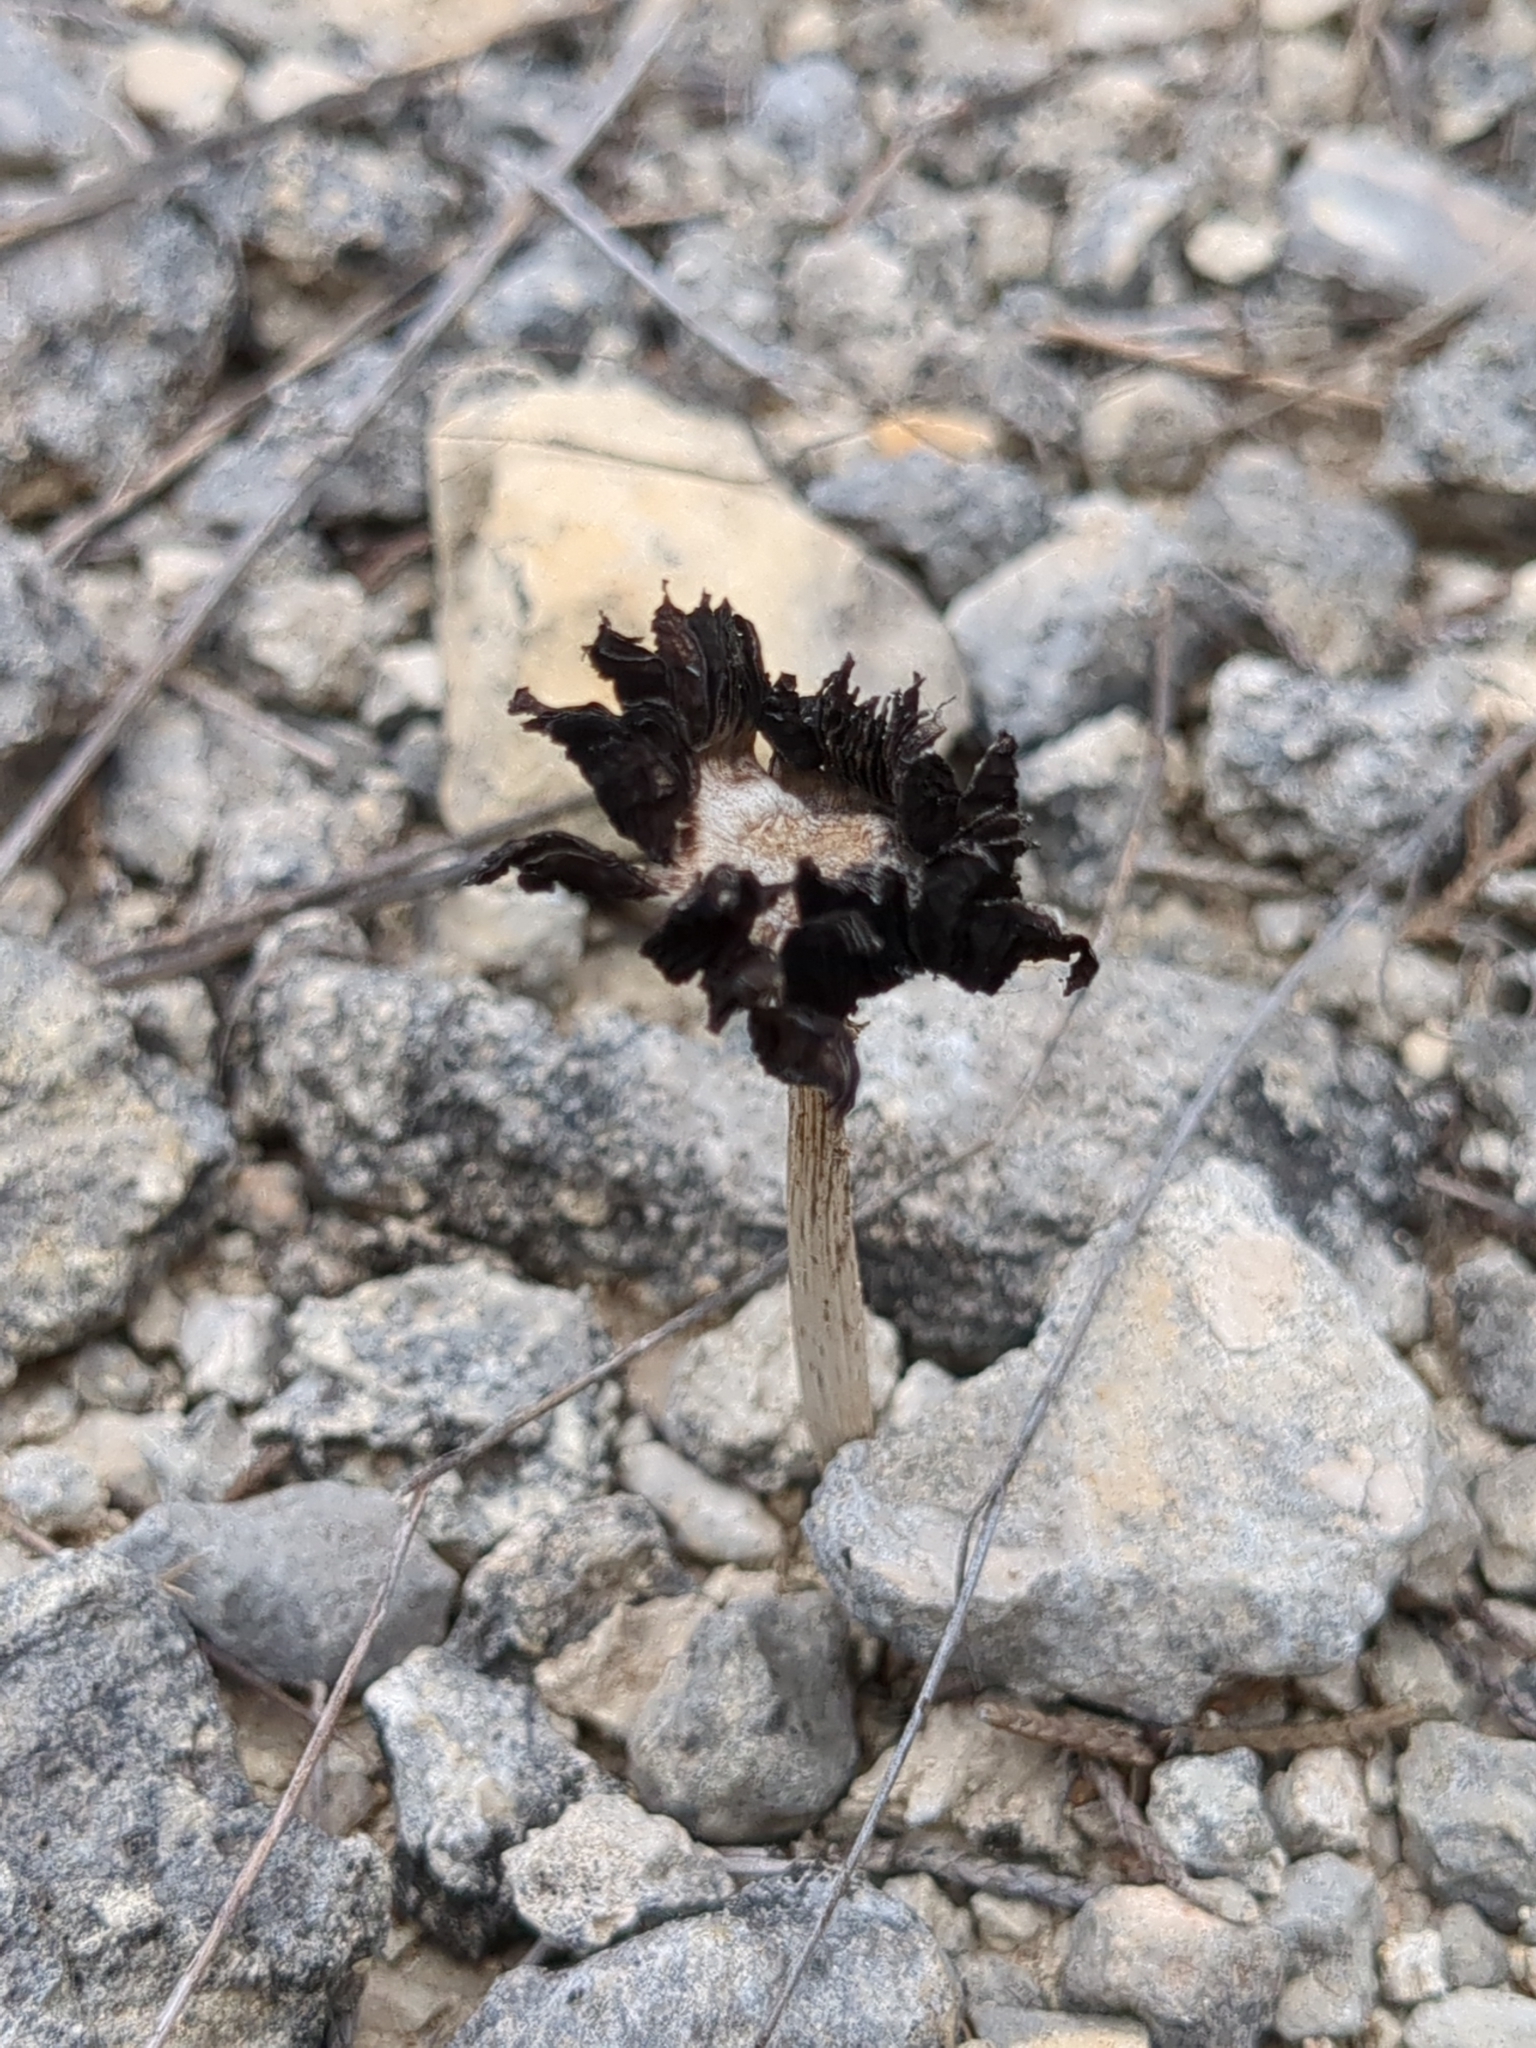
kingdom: Fungi
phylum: Basidiomycota
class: Agaricomycetes
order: Agaricales
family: Psathyrellaceae
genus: Coprinopsis
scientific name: Coprinopsis lagopus
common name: Hare'sfoot inkcap
